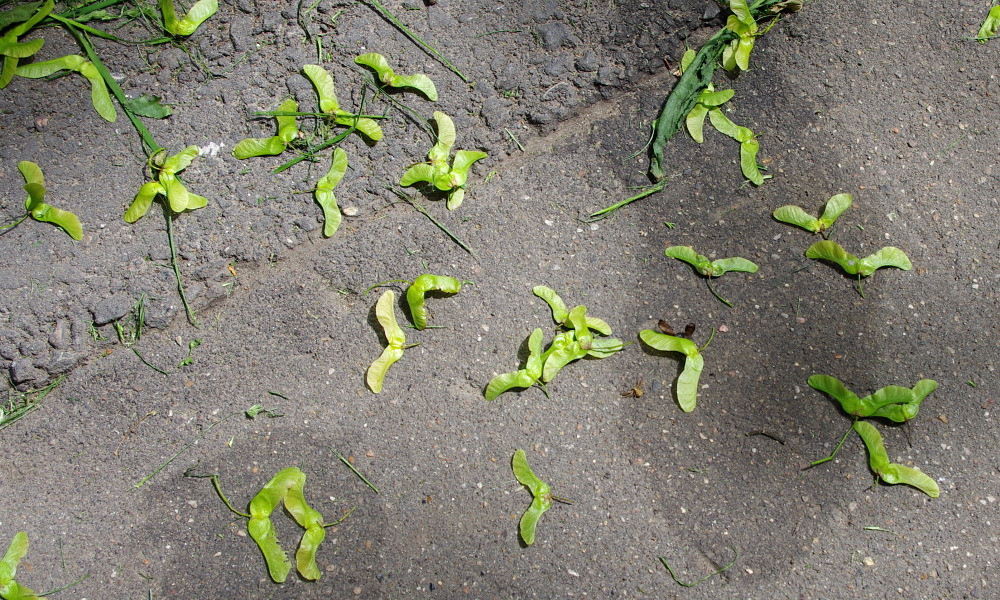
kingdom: Plantae
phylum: Tracheophyta
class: Magnoliopsida
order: Sapindales
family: Sapindaceae
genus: Acer
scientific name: Acer platanoides
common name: Norway maple
